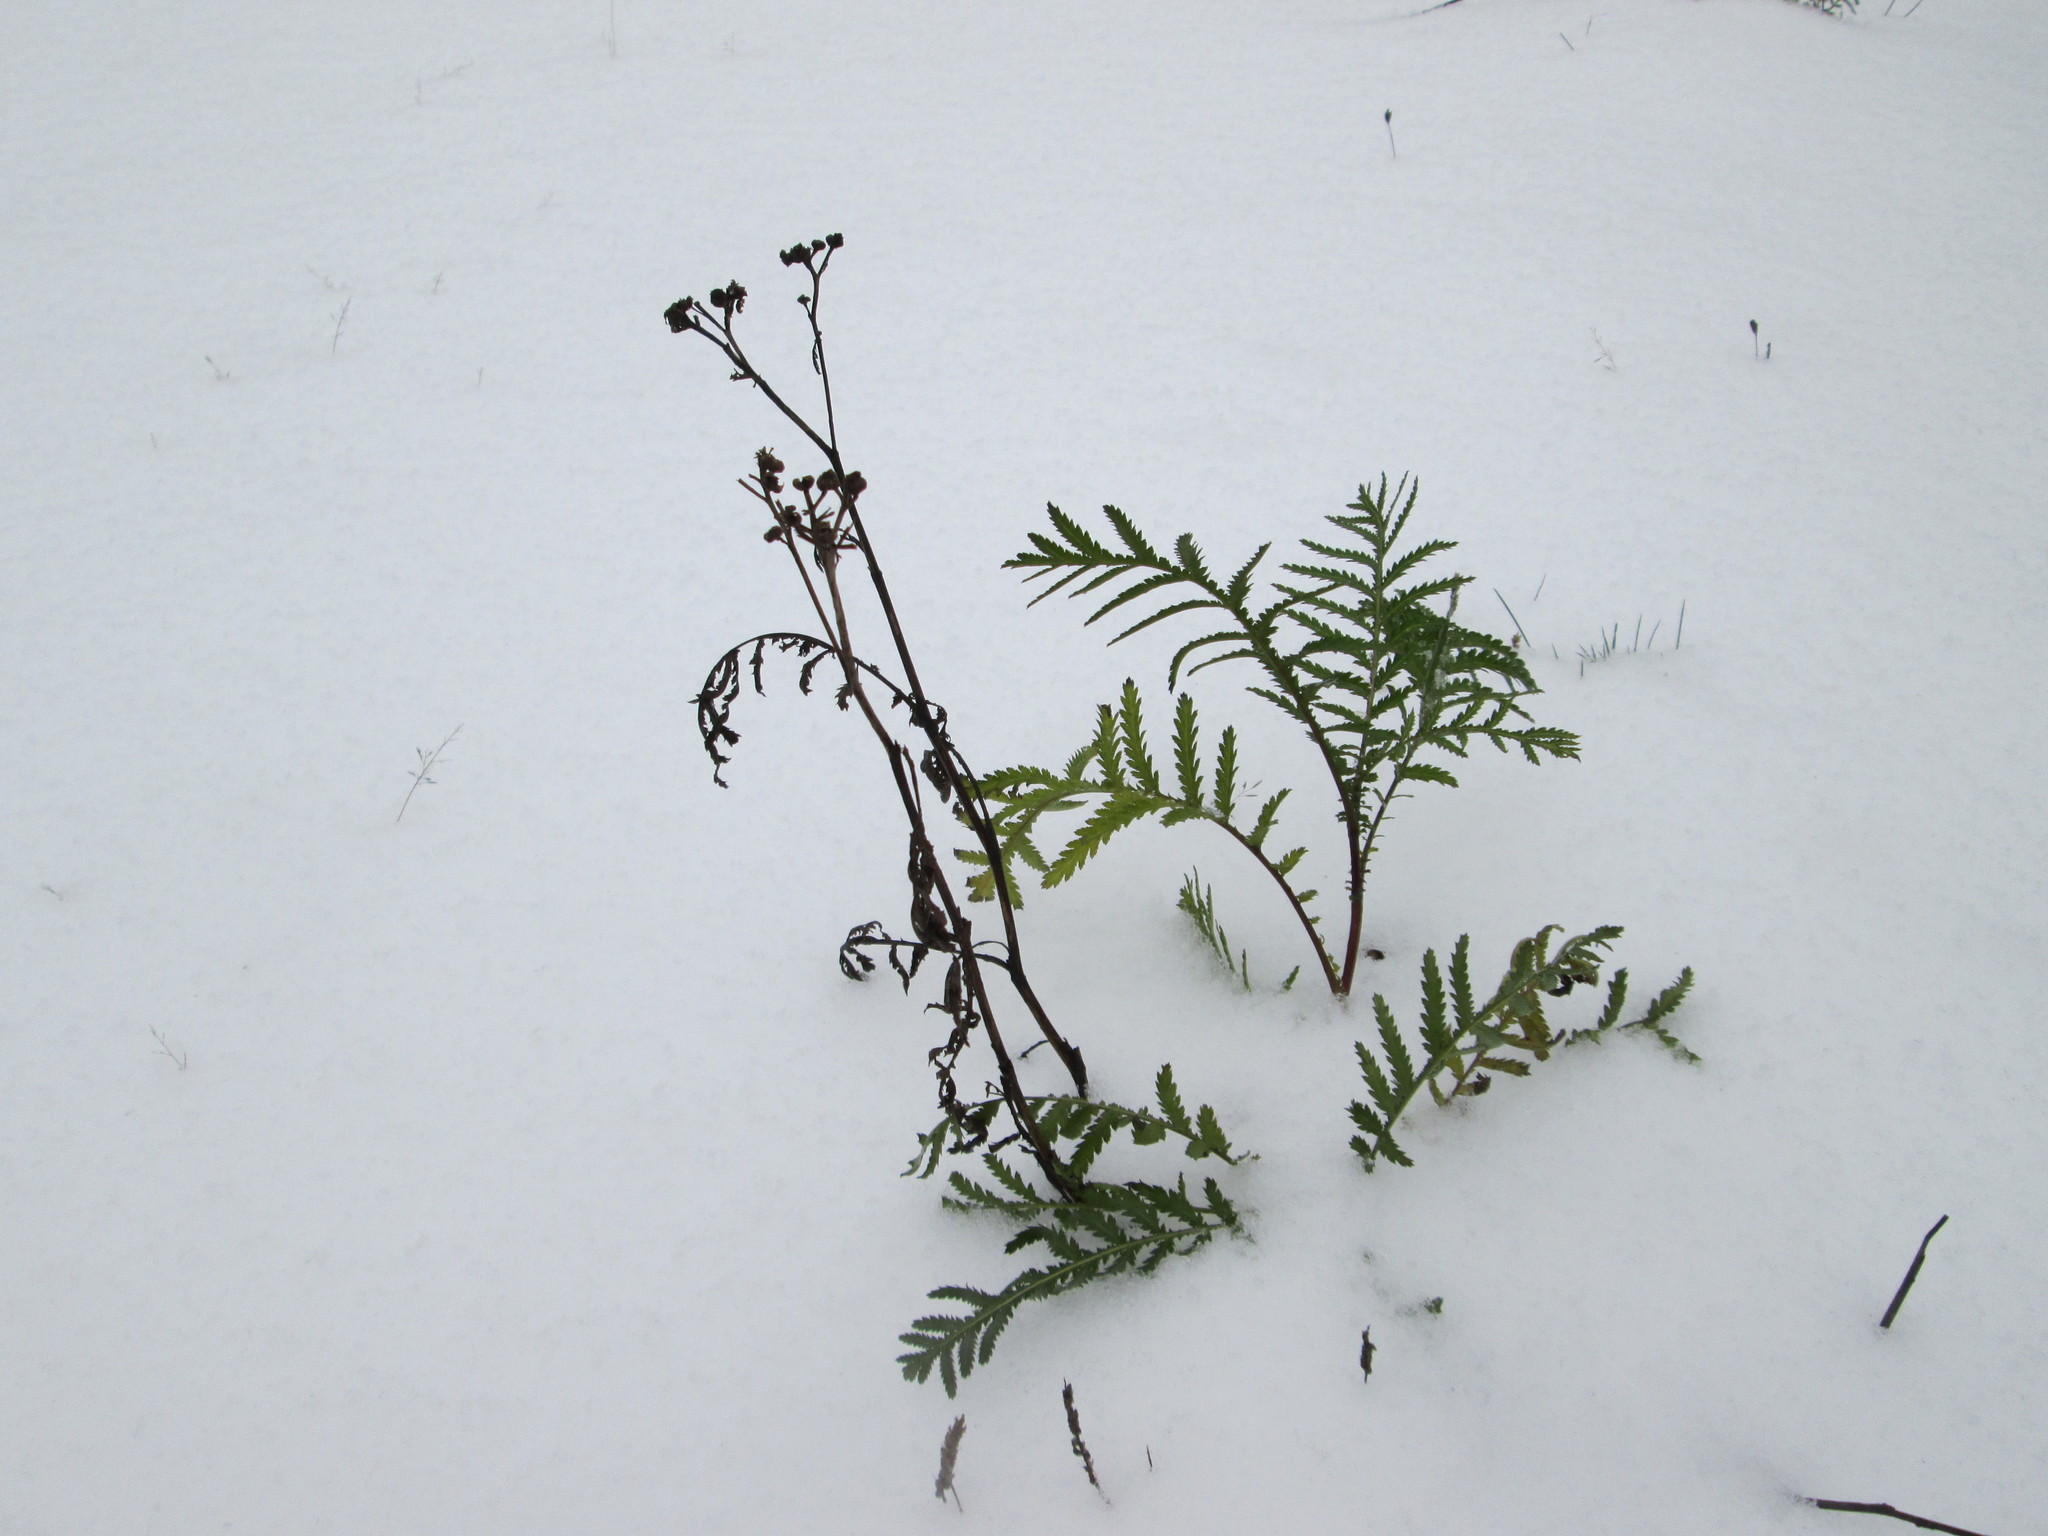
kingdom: Plantae
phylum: Tracheophyta
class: Magnoliopsida
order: Asterales
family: Asteraceae
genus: Tanacetum
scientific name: Tanacetum vulgare
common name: Common tansy
